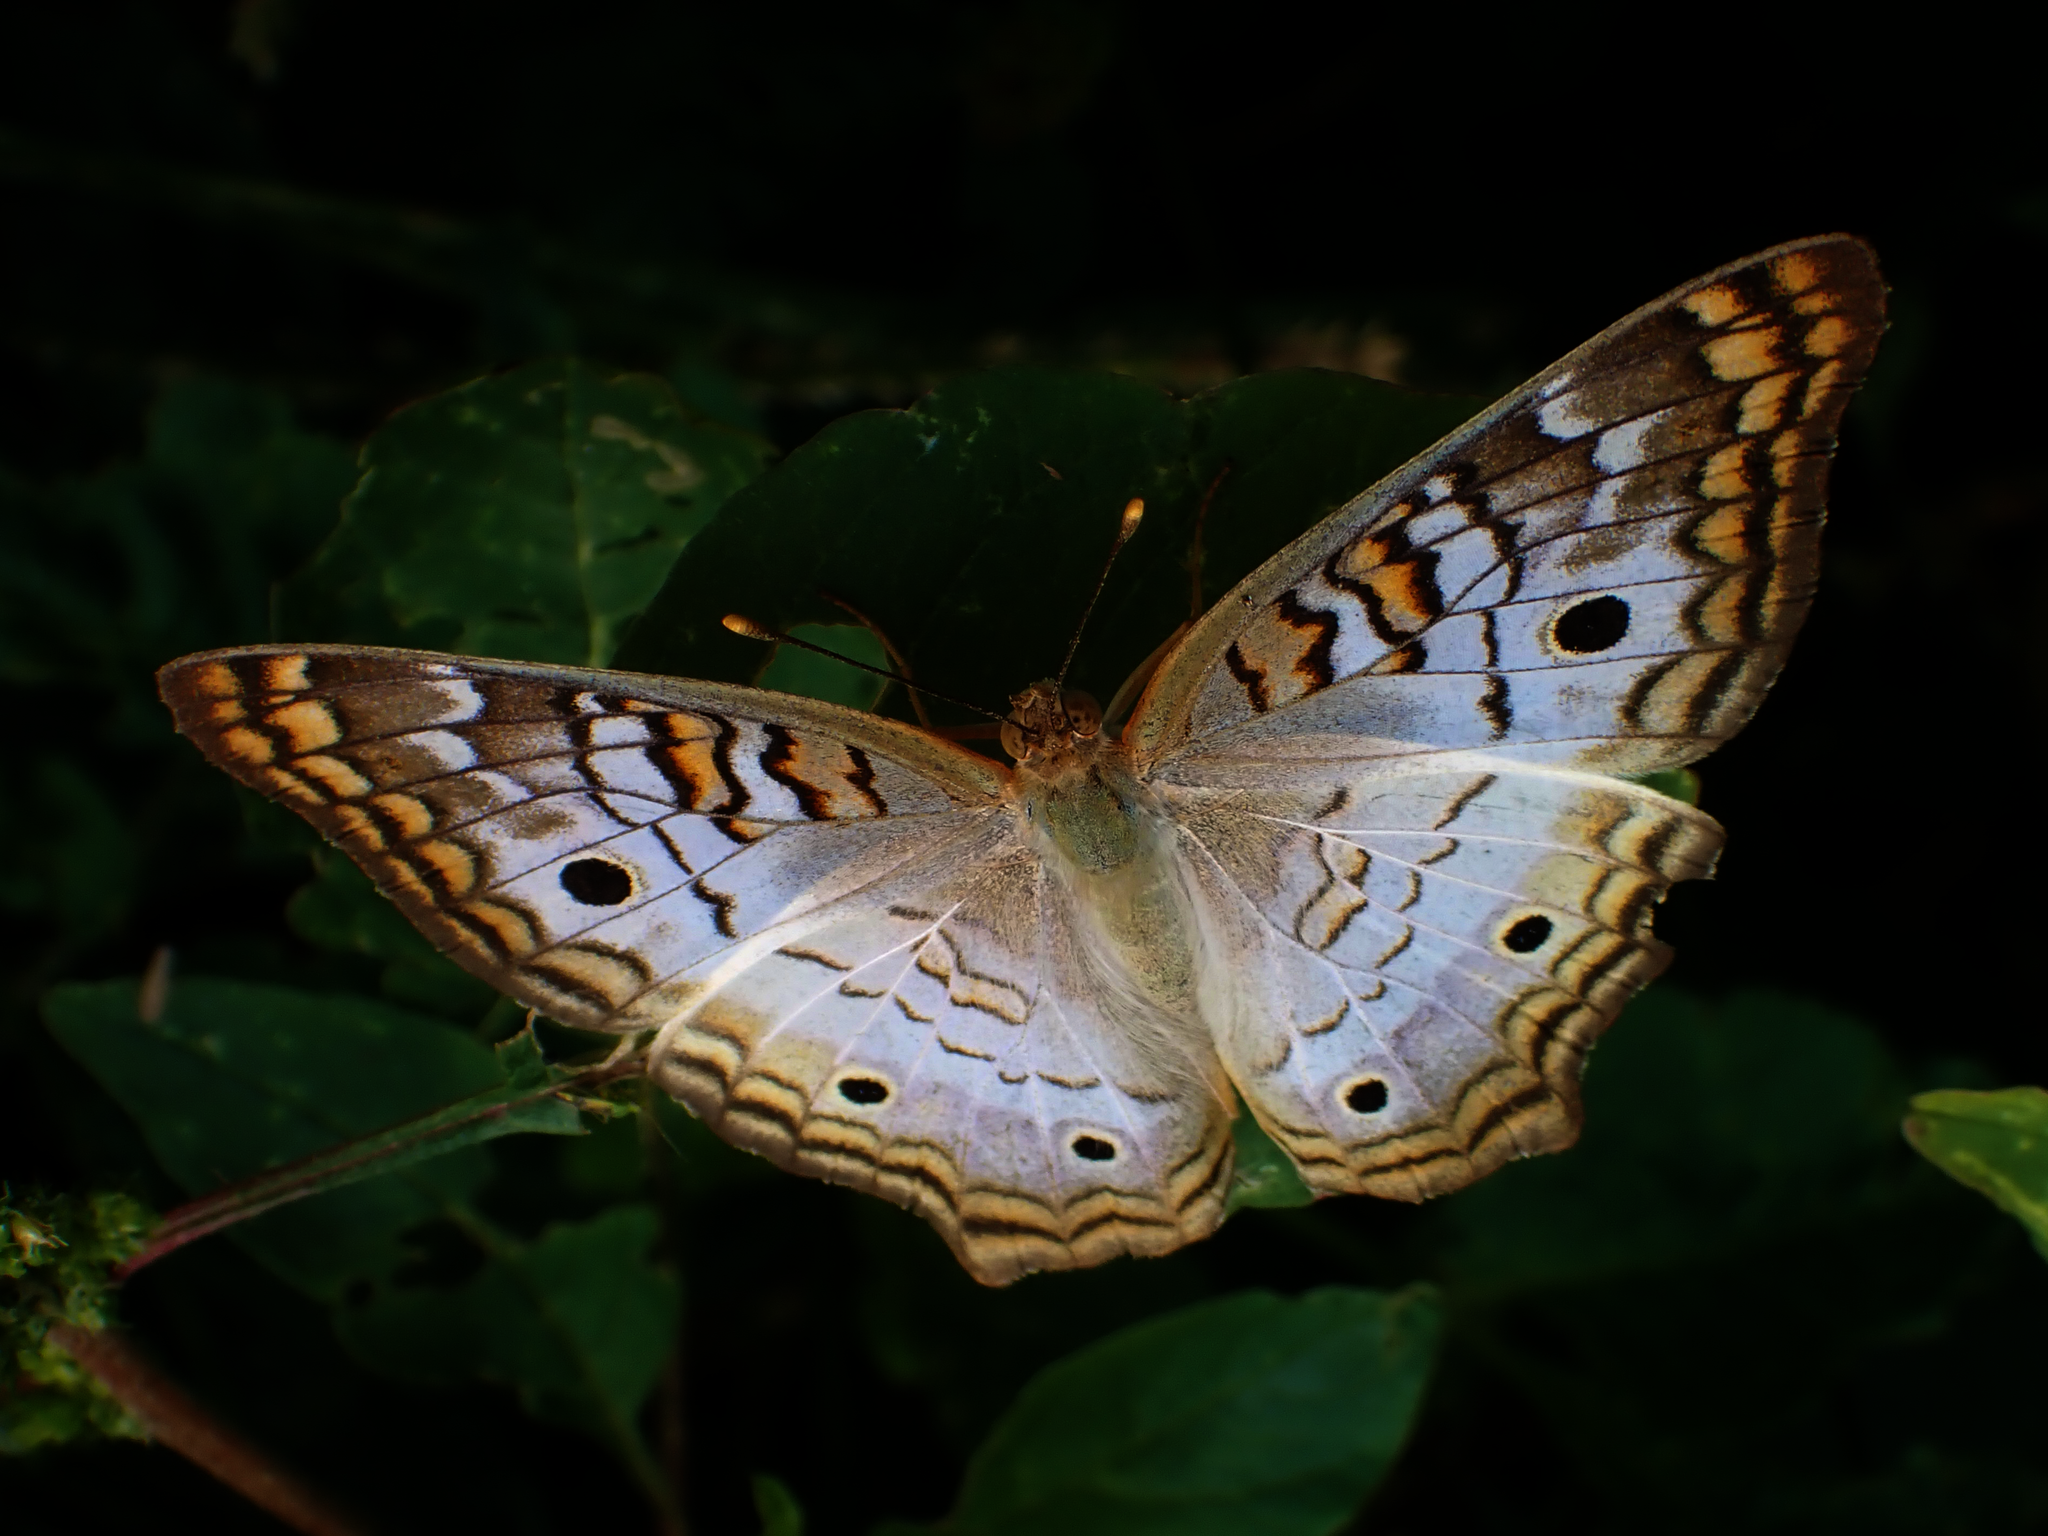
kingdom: Animalia
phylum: Arthropoda
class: Insecta
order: Lepidoptera
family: Nymphalidae
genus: Anartia
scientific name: Anartia jatrophae
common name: White peacock
